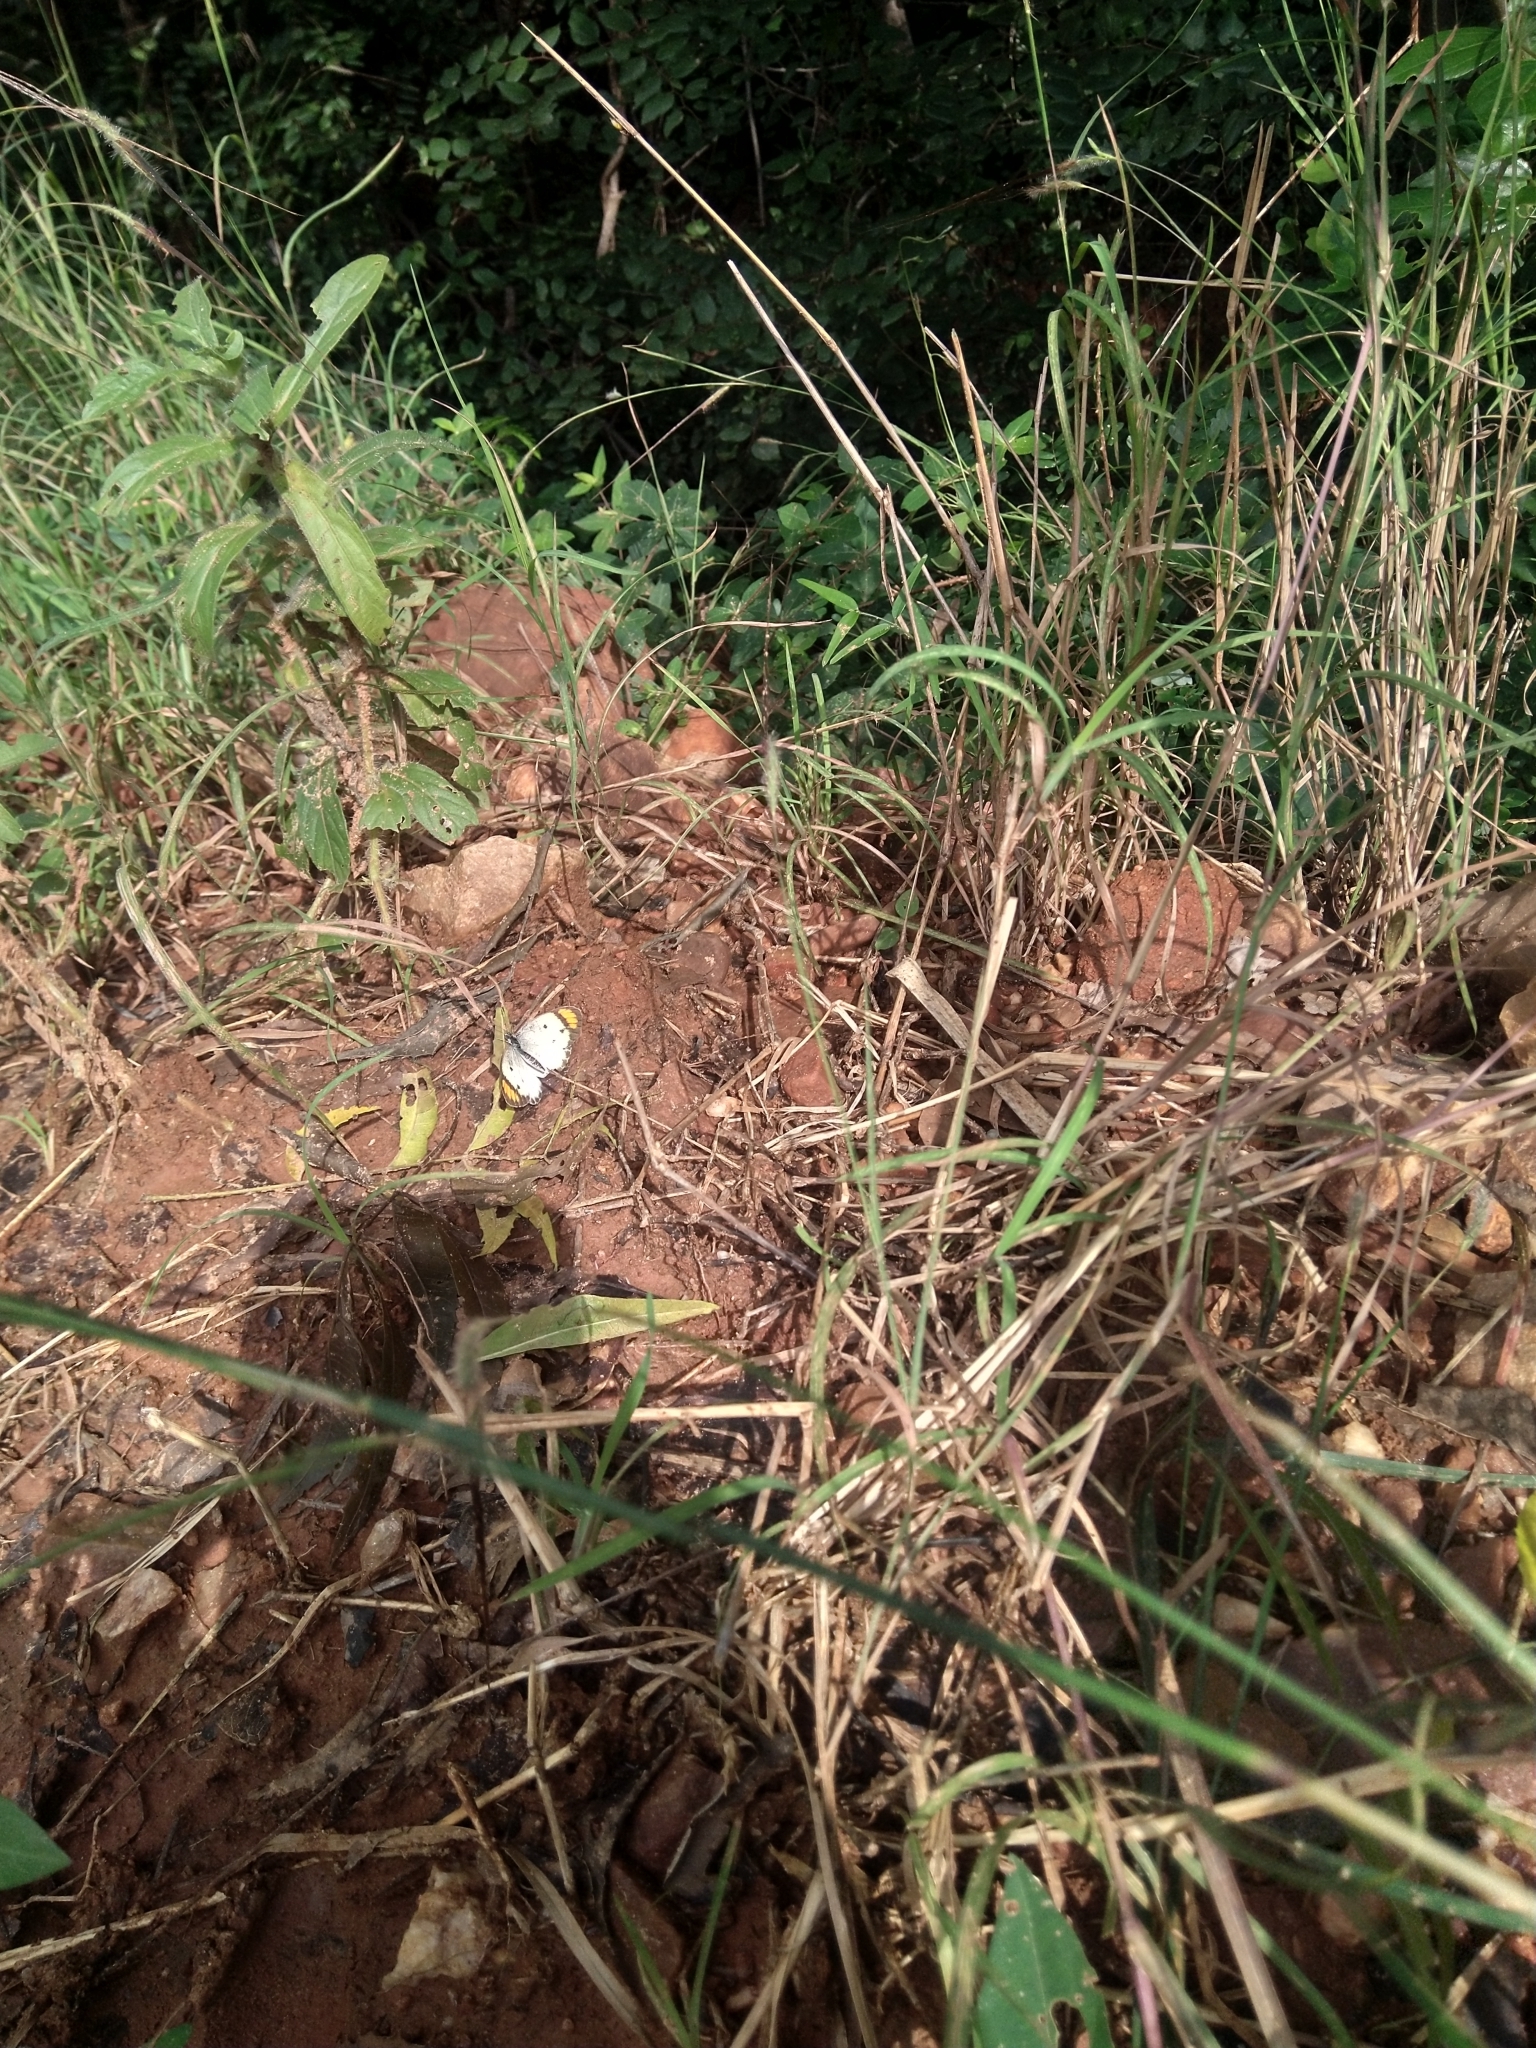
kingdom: Animalia
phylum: Arthropoda
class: Insecta
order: Lepidoptera
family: Pieridae
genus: Ixias
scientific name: Ixias marianne
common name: White orange tip
